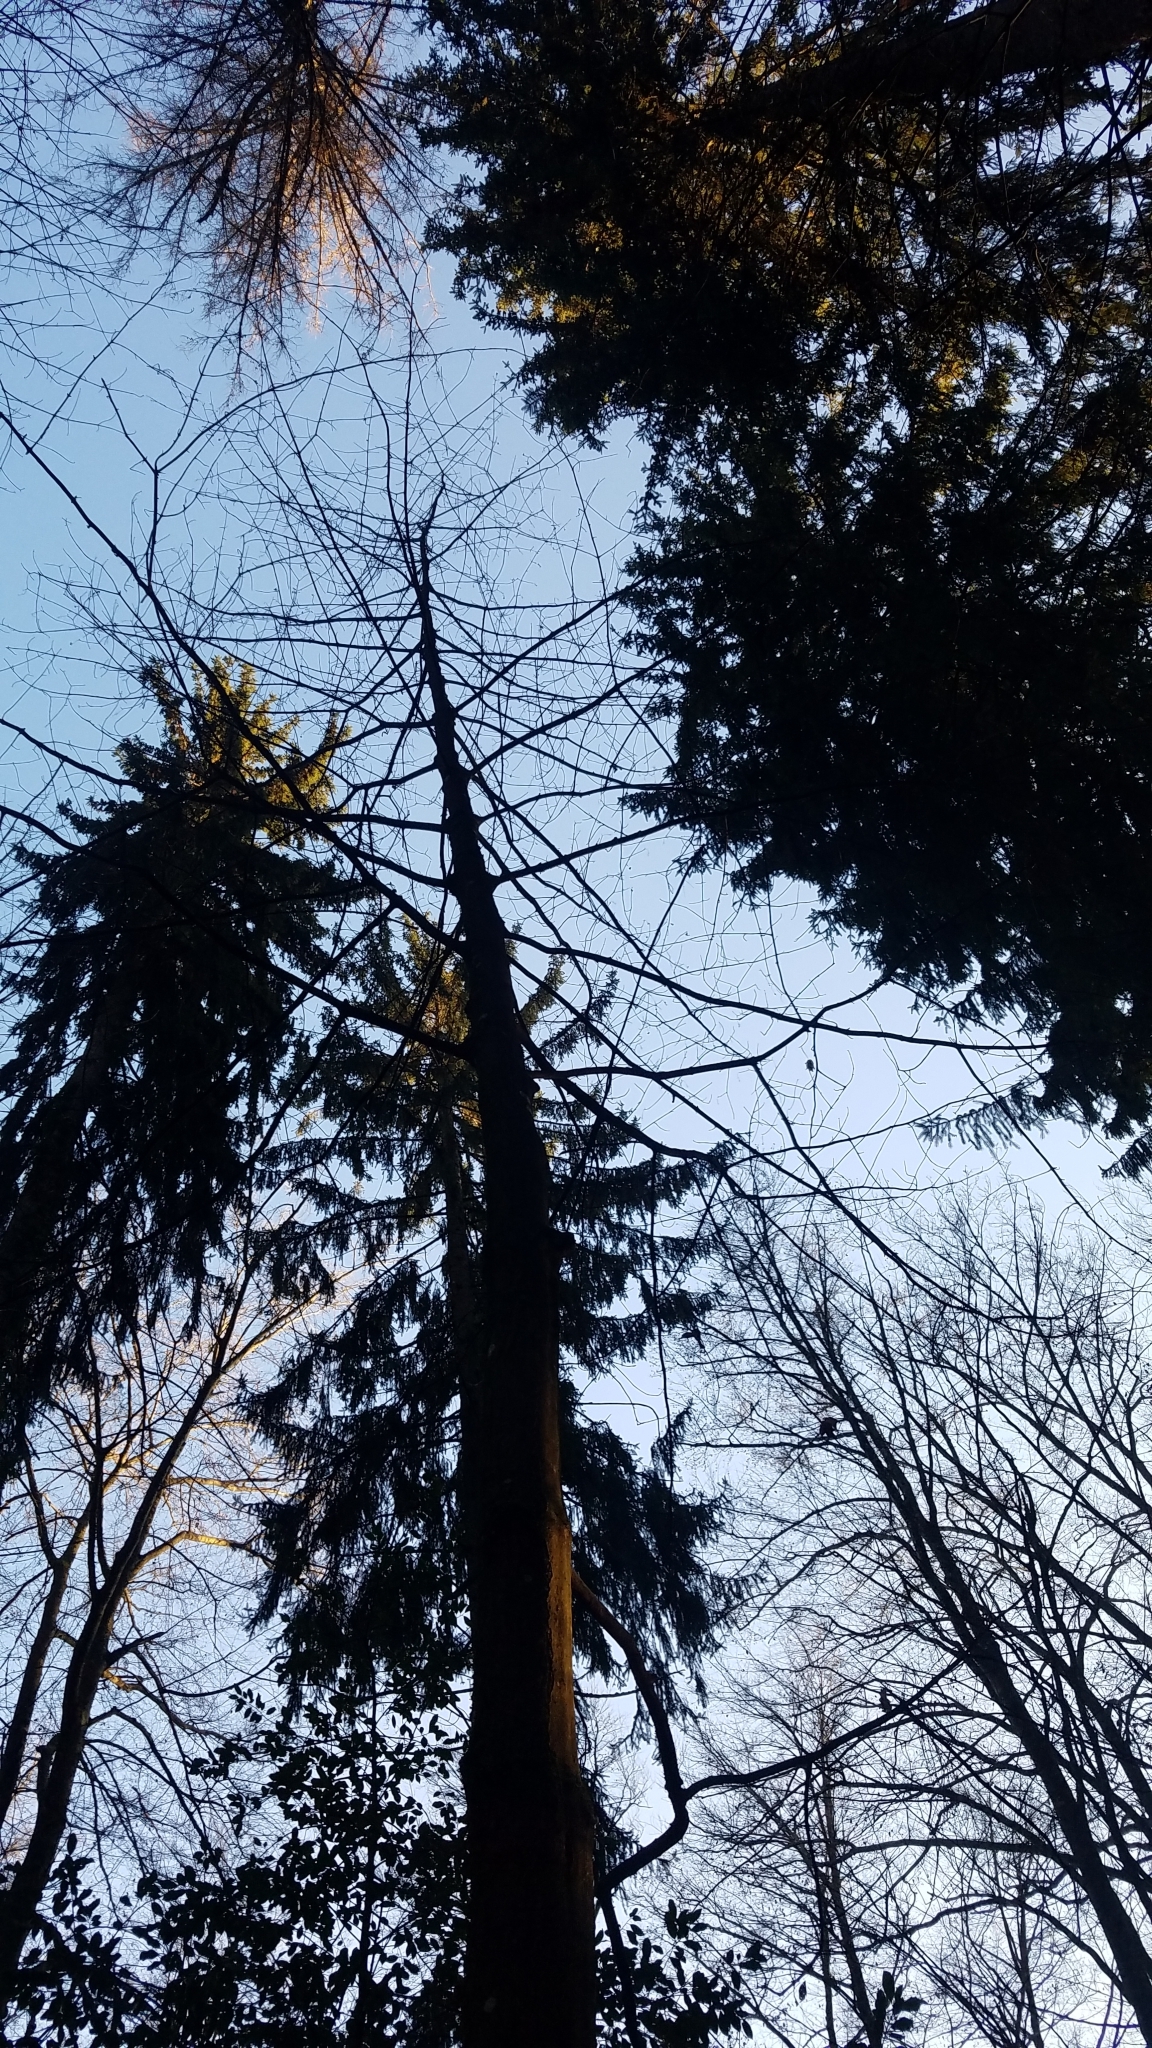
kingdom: Plantae
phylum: Tracheophyta
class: Magnoliopsida
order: Sapindales
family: Sapindaceae
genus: Acer
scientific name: Acer pseudoplatanus
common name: Sycamore
